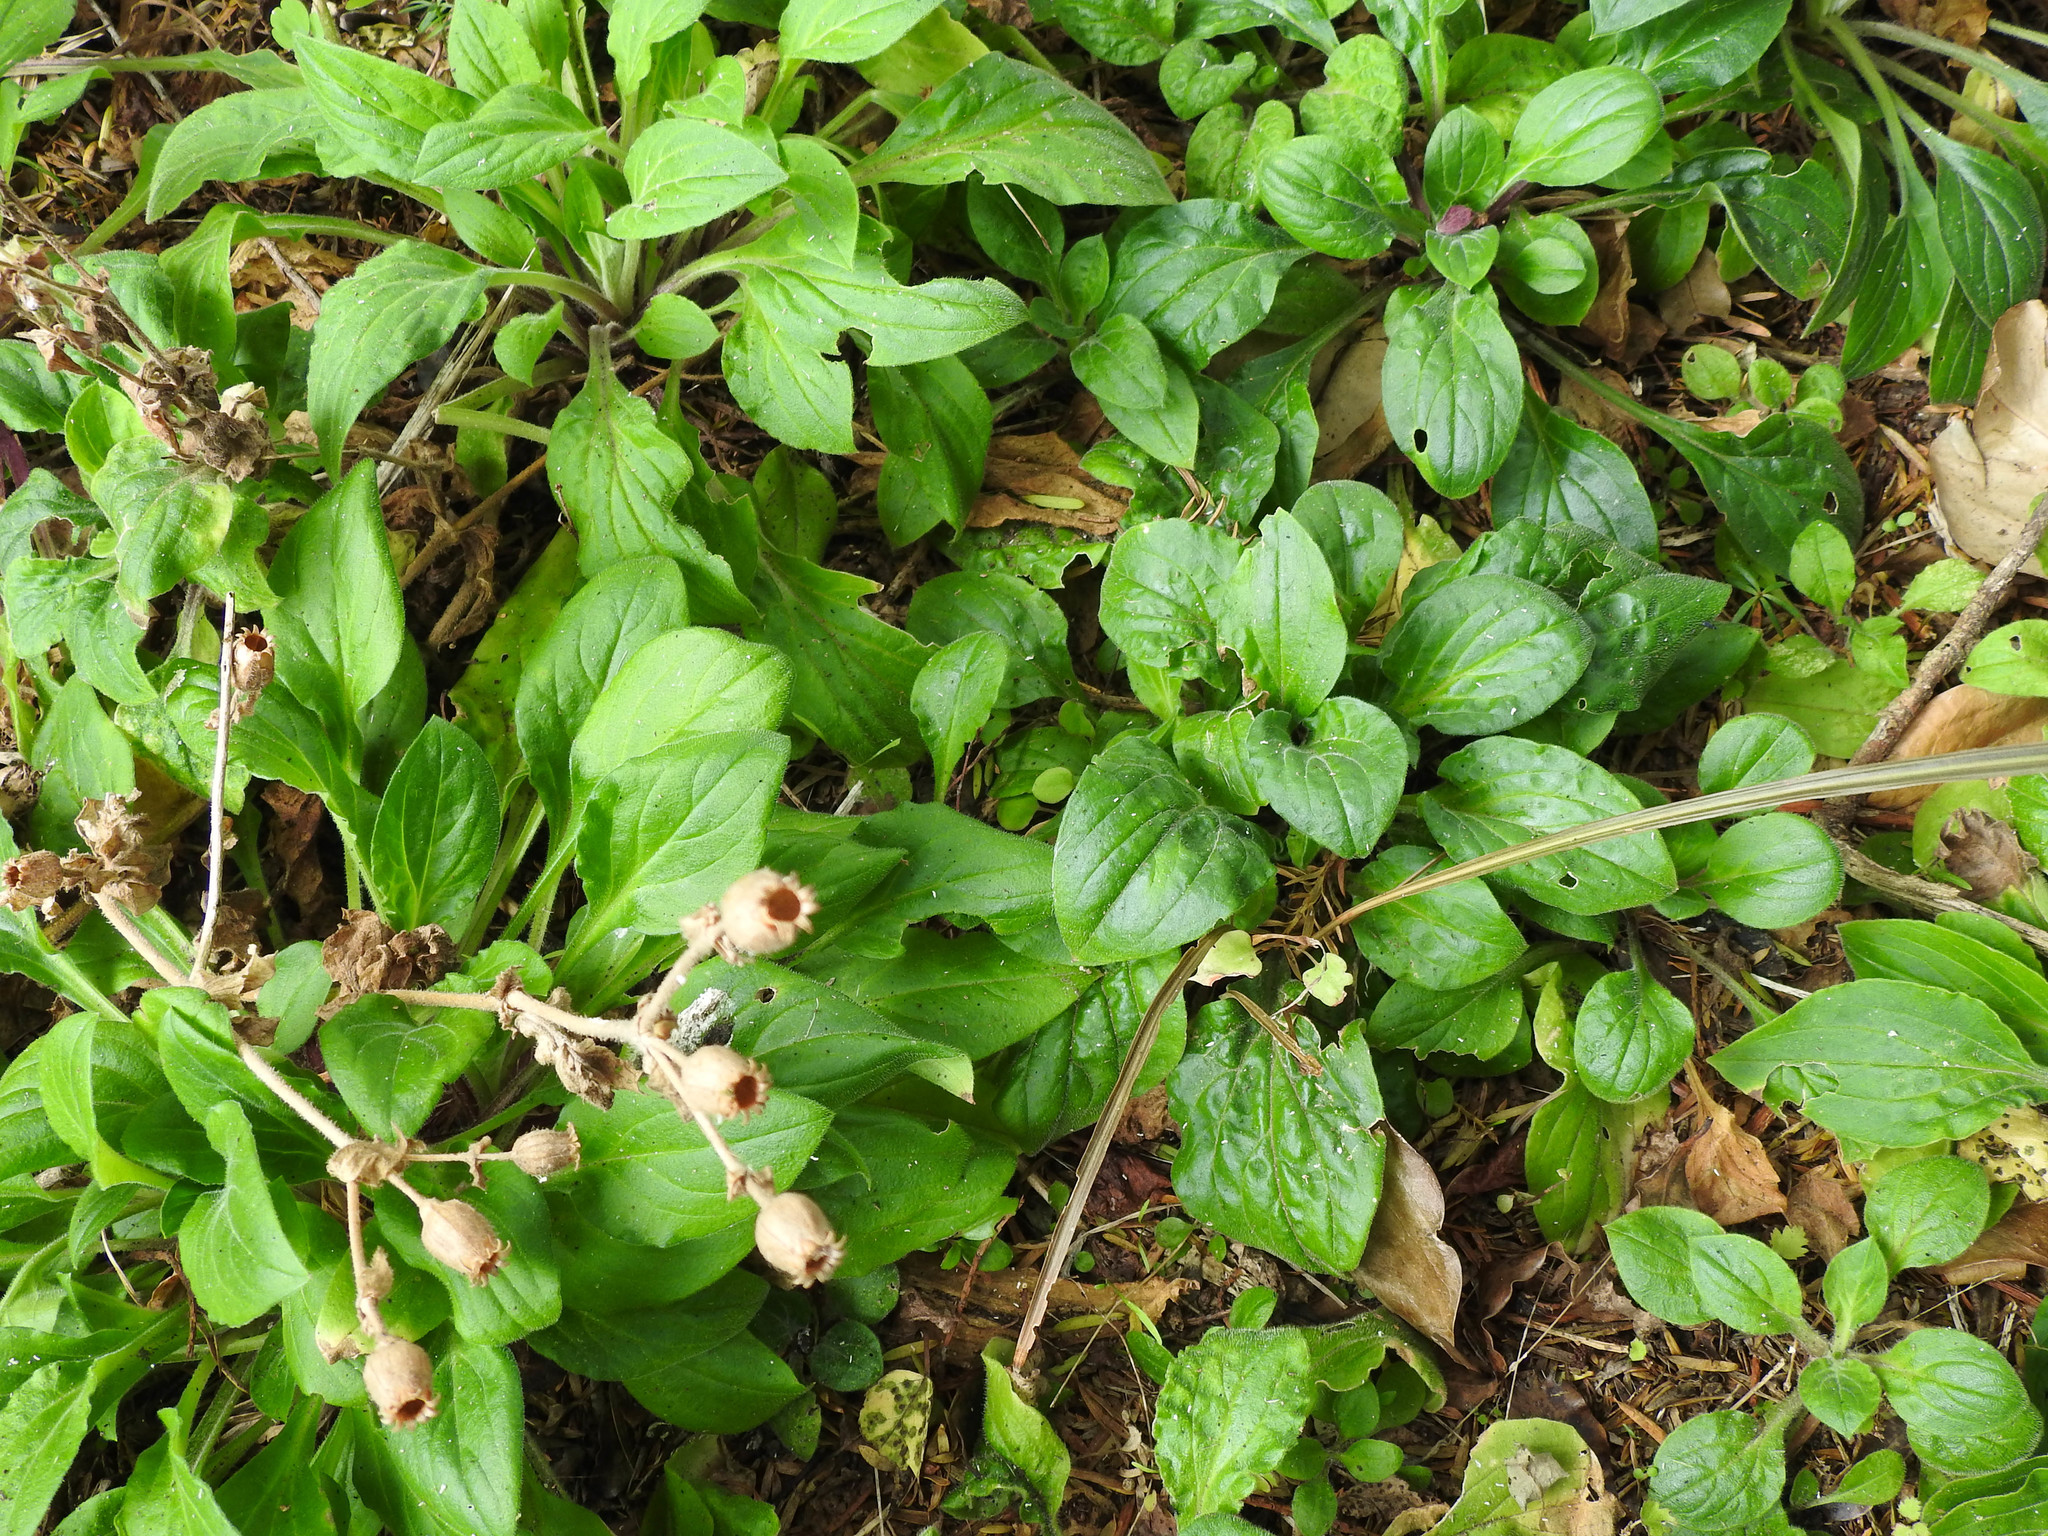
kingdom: Plantae
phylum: Tracheophyta
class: Magnoliopsida
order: Caryophyllales
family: Caryophyllaceae
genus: Silene
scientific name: Silene dioica
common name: Red campion
